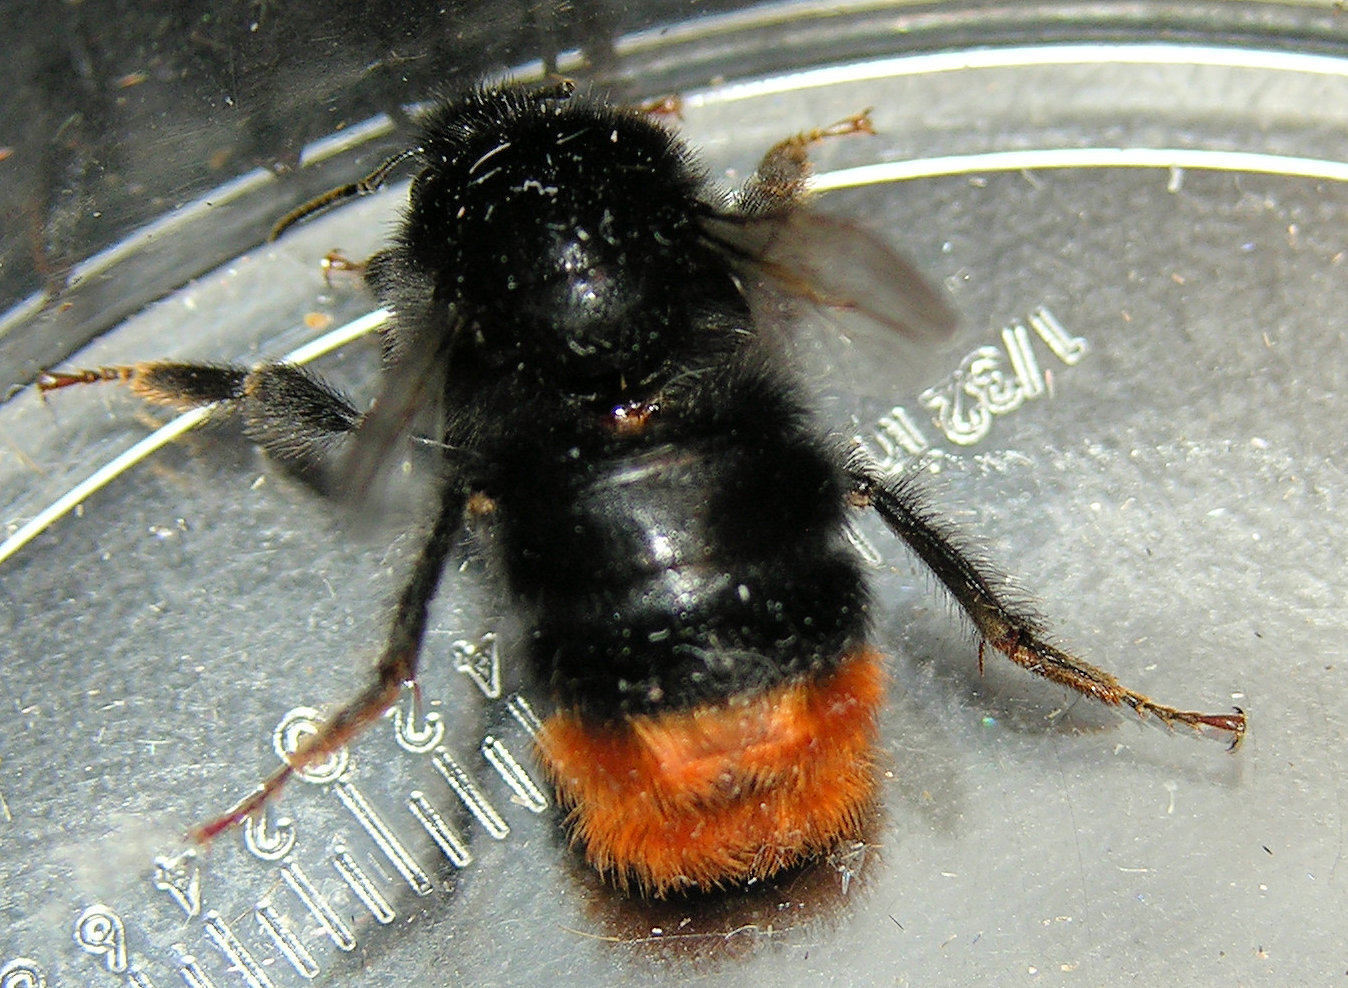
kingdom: Animalia
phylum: Arthropoda
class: Insecta
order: Hymenoptera
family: Apidae
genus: Bombus
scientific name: Bombus lapidarius
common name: Large red-tailed humble-bee
